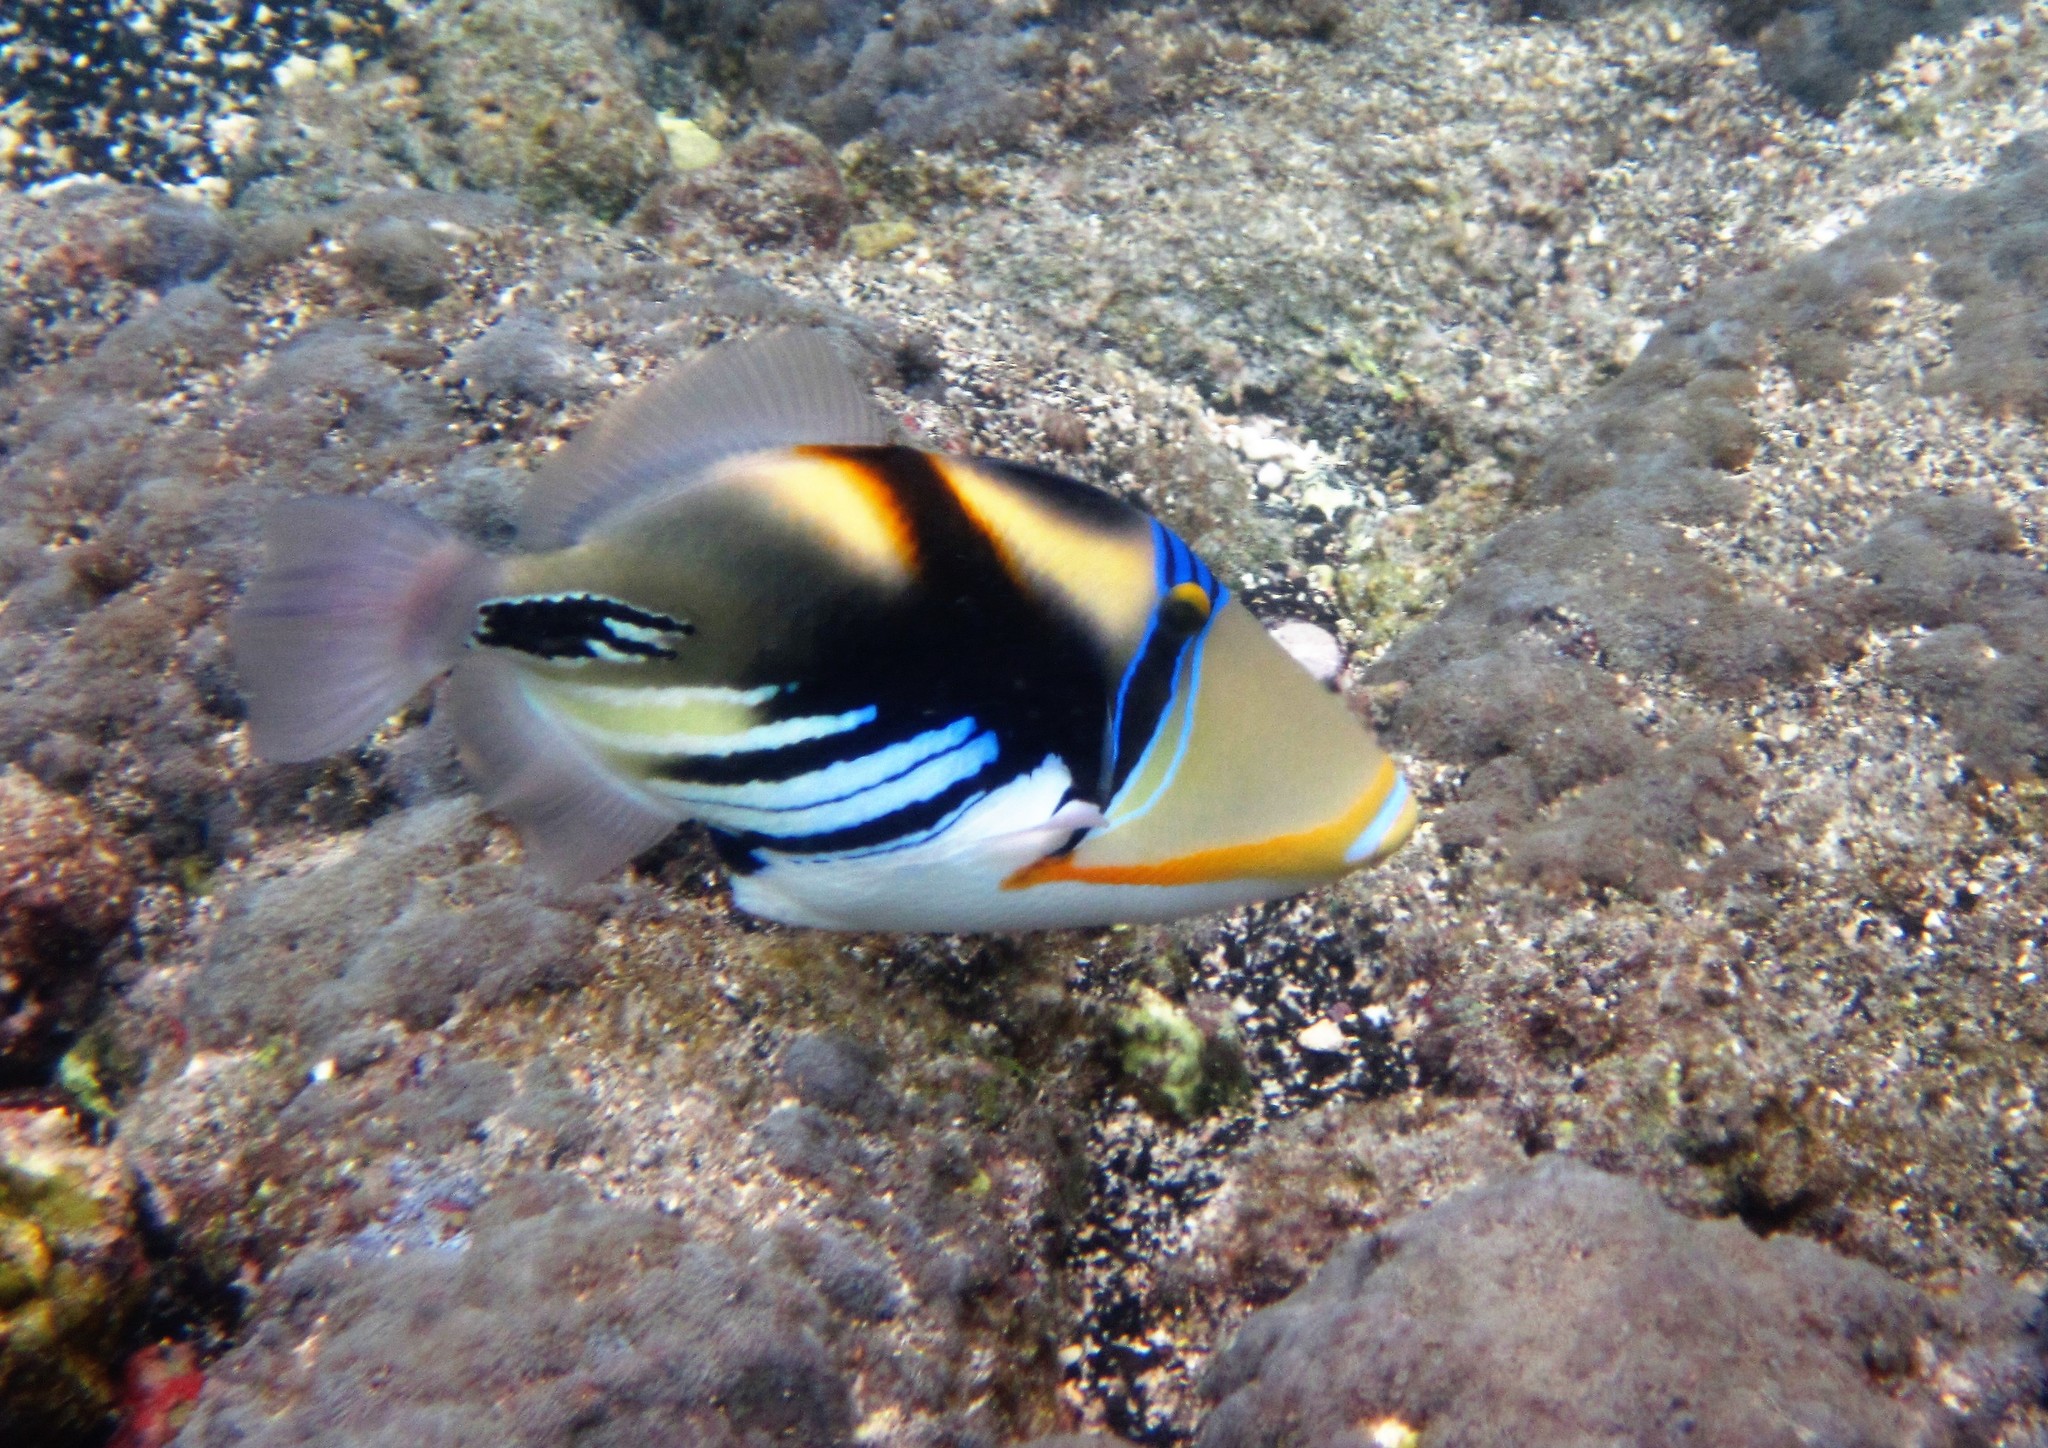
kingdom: Animalia
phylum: Chordata
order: Tetraodontiformes
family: Balistidae
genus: Rhinecanthus
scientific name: Rhinecanthus aculeatus
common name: White-banded triggerfish
